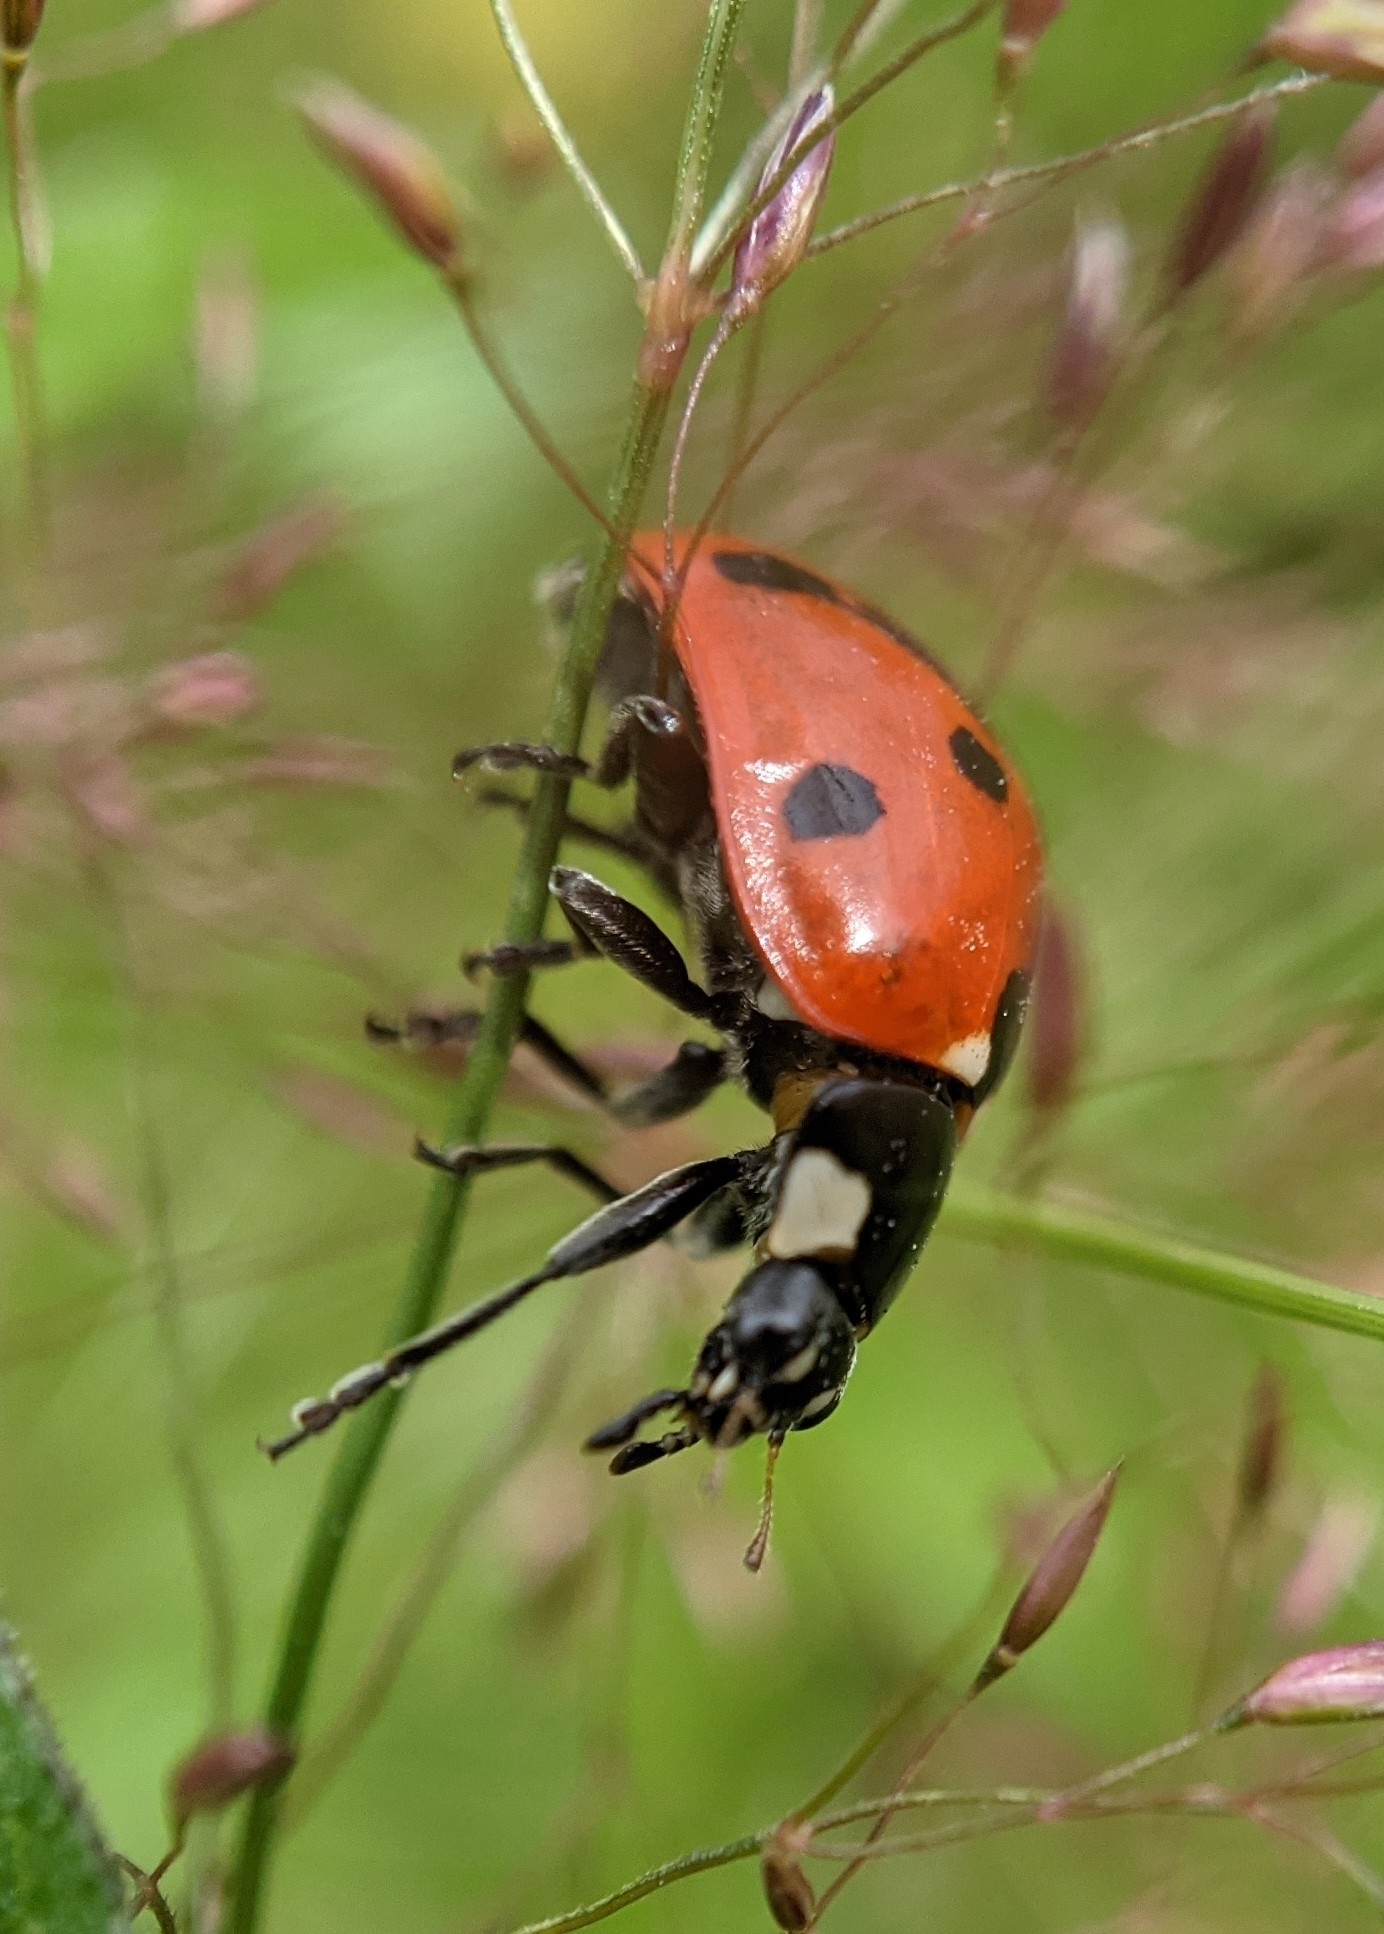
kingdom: Animalia
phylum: Arthropoda
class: Insecta
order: Coleoptera
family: Coccinellidae
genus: Coccinella
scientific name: Coccinella septempunctata
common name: Sevenspotted lady beetle
